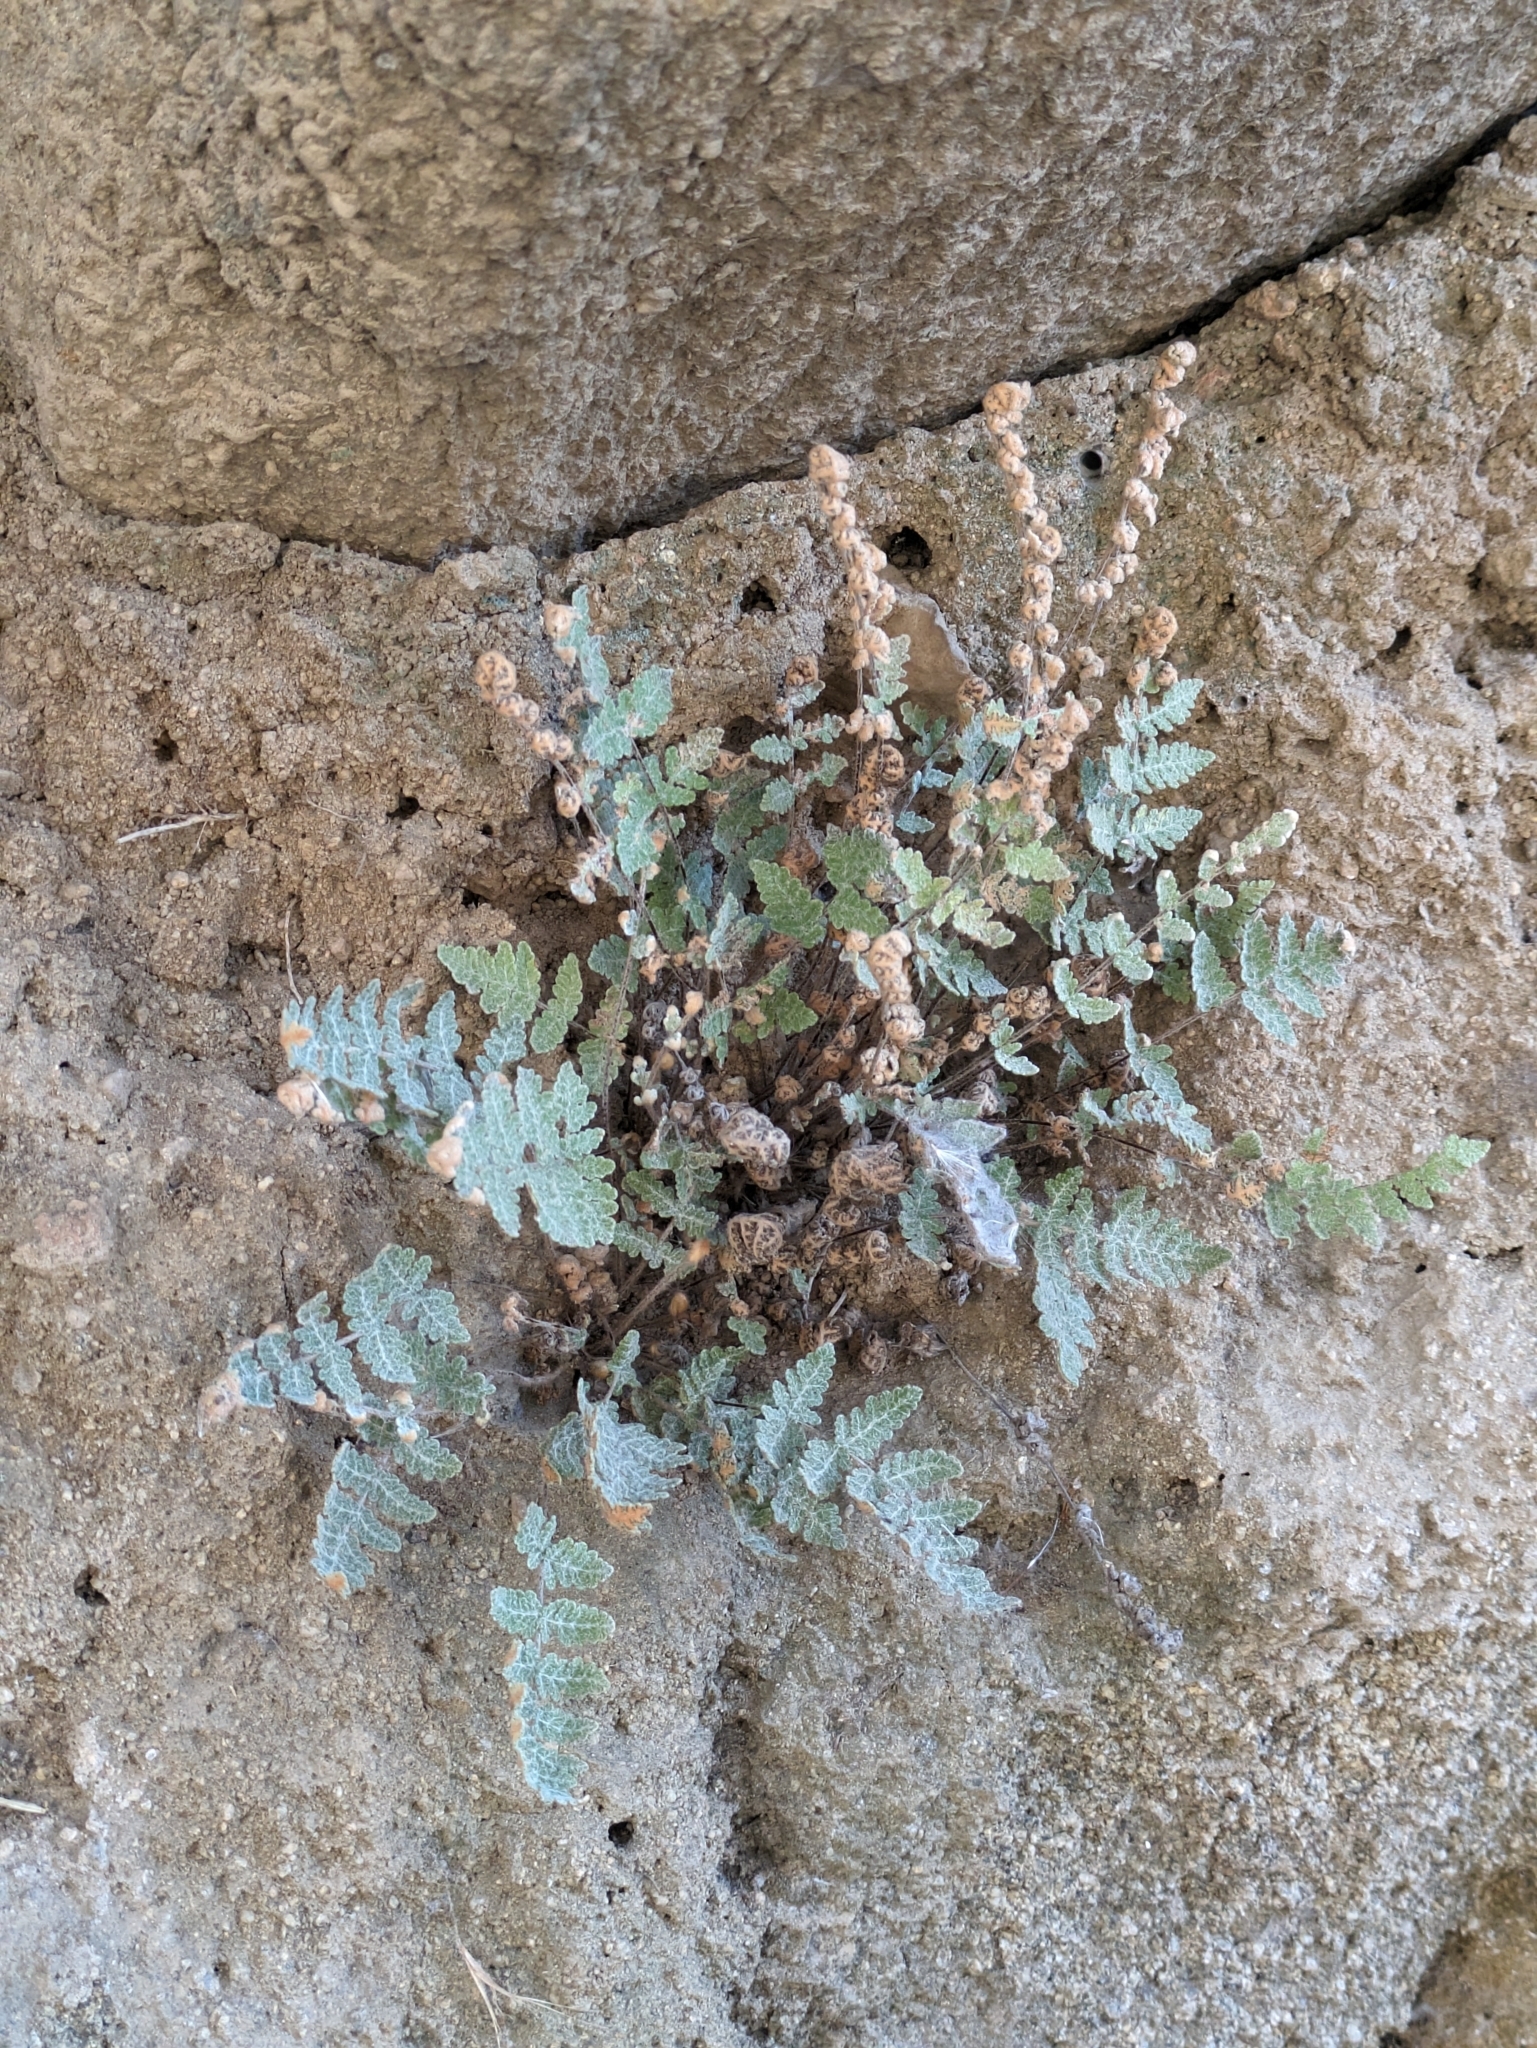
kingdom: Plantae
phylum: Tracheophyta
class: Polypodiopsida
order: Polypodiales
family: Pteridaceae
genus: Myriopteris
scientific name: Myriopteris newberryi
